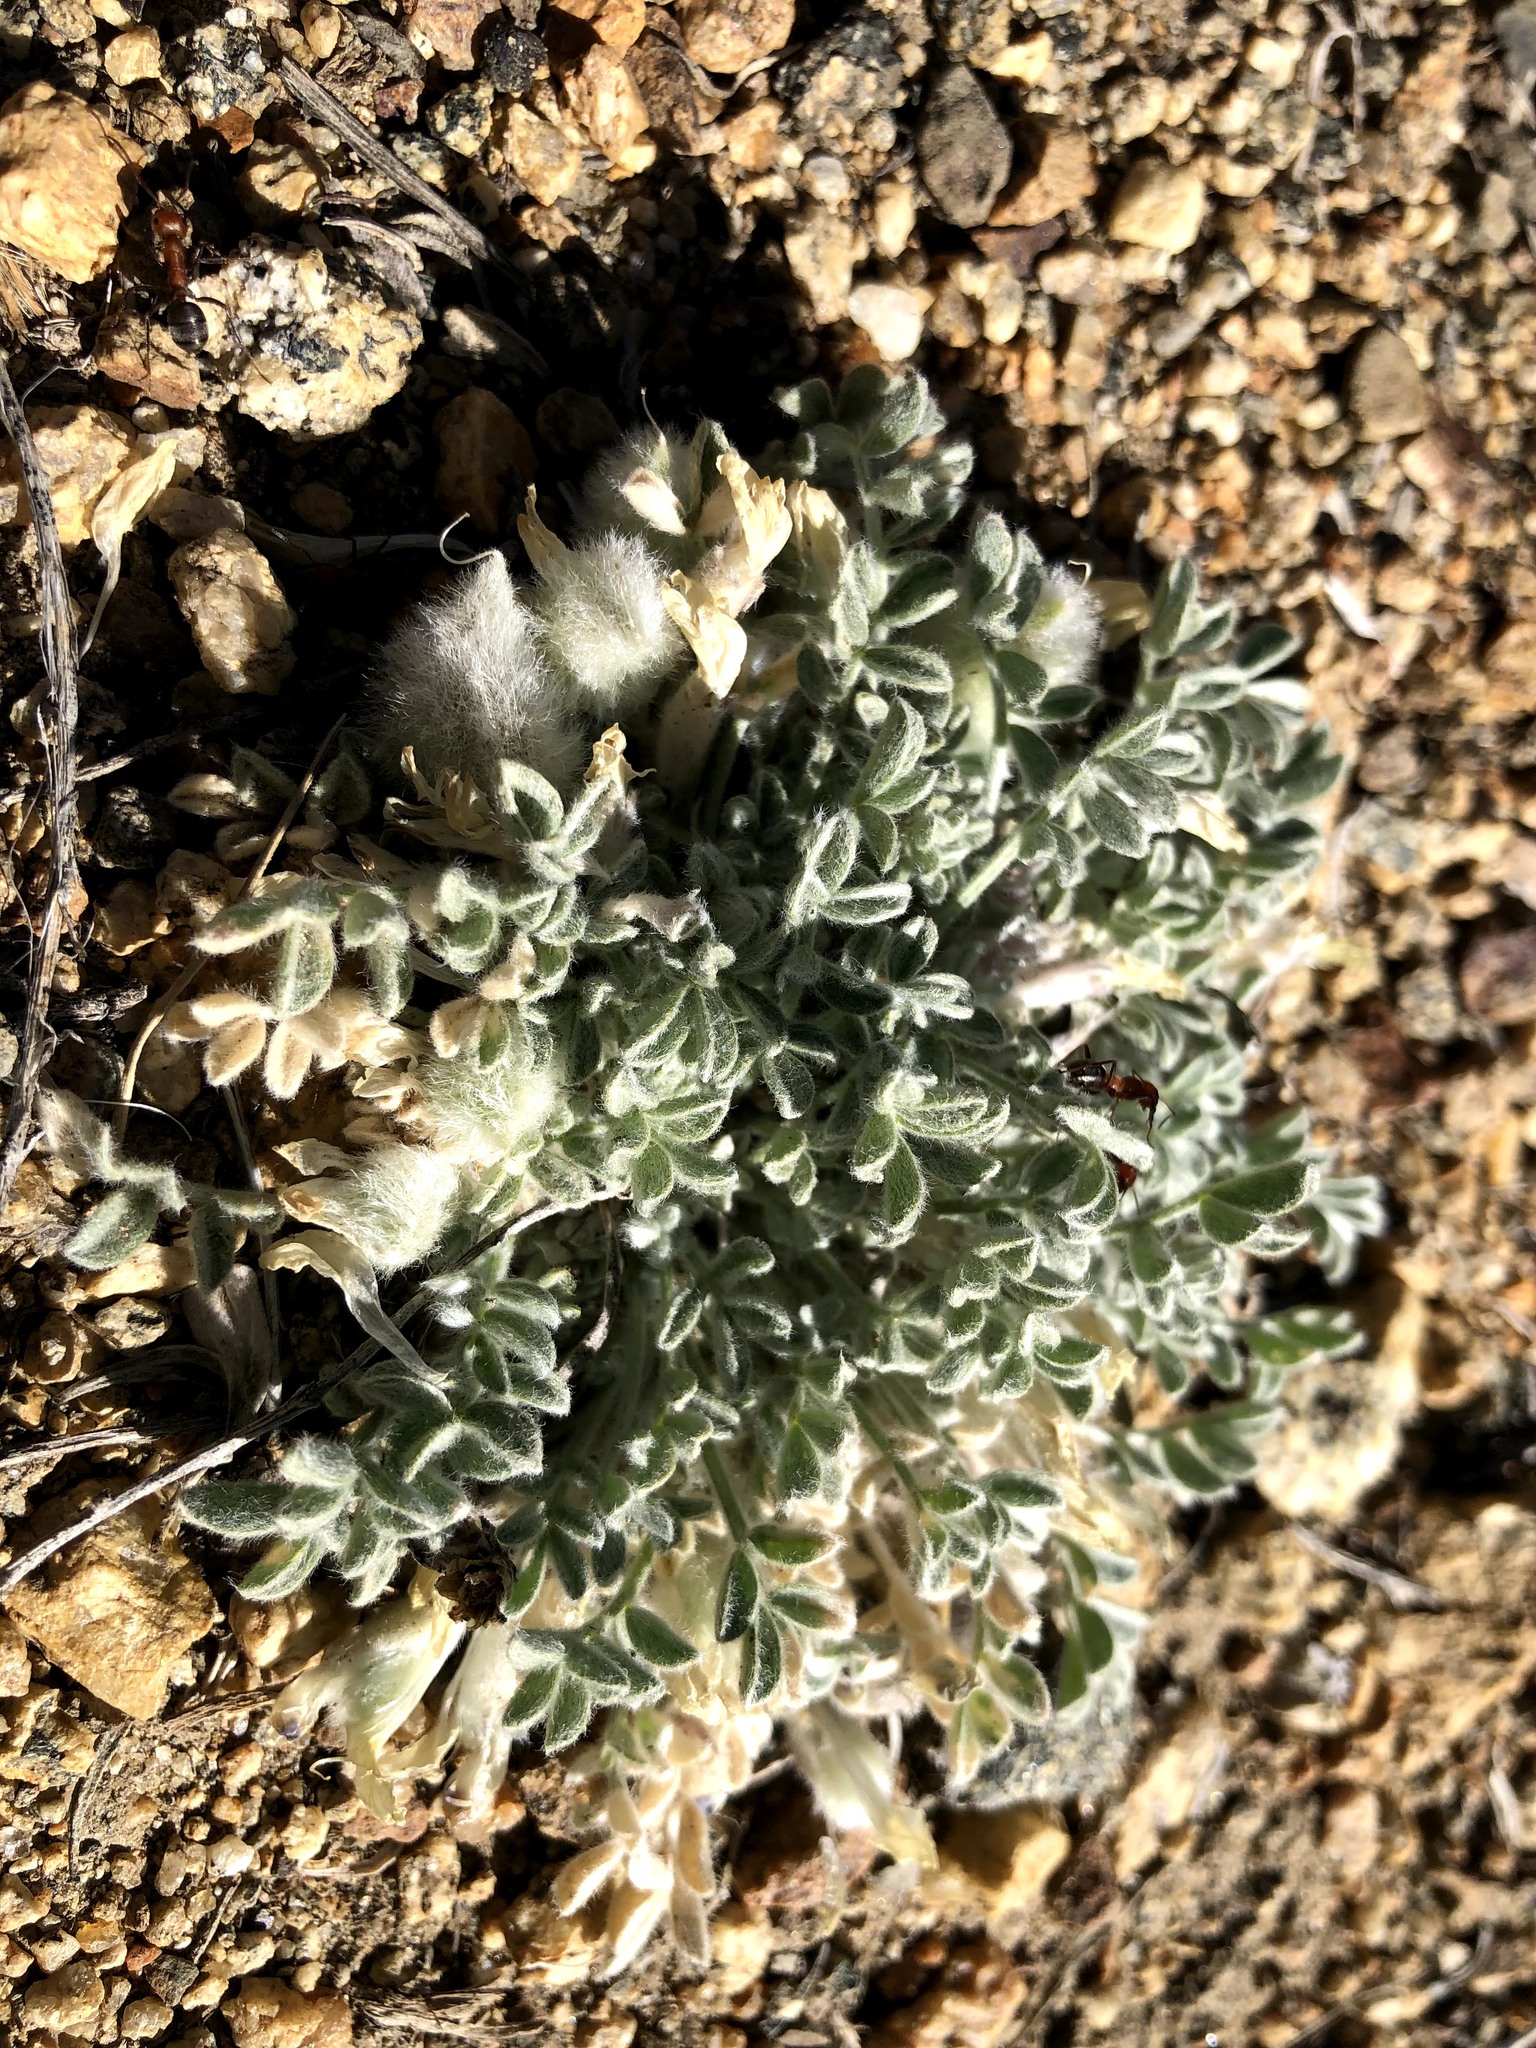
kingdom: Plantae
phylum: Tracheophyta
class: Magnoliopsida
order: Fabales
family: Fabaceae
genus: Astragalus
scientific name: Astragalus purshii
